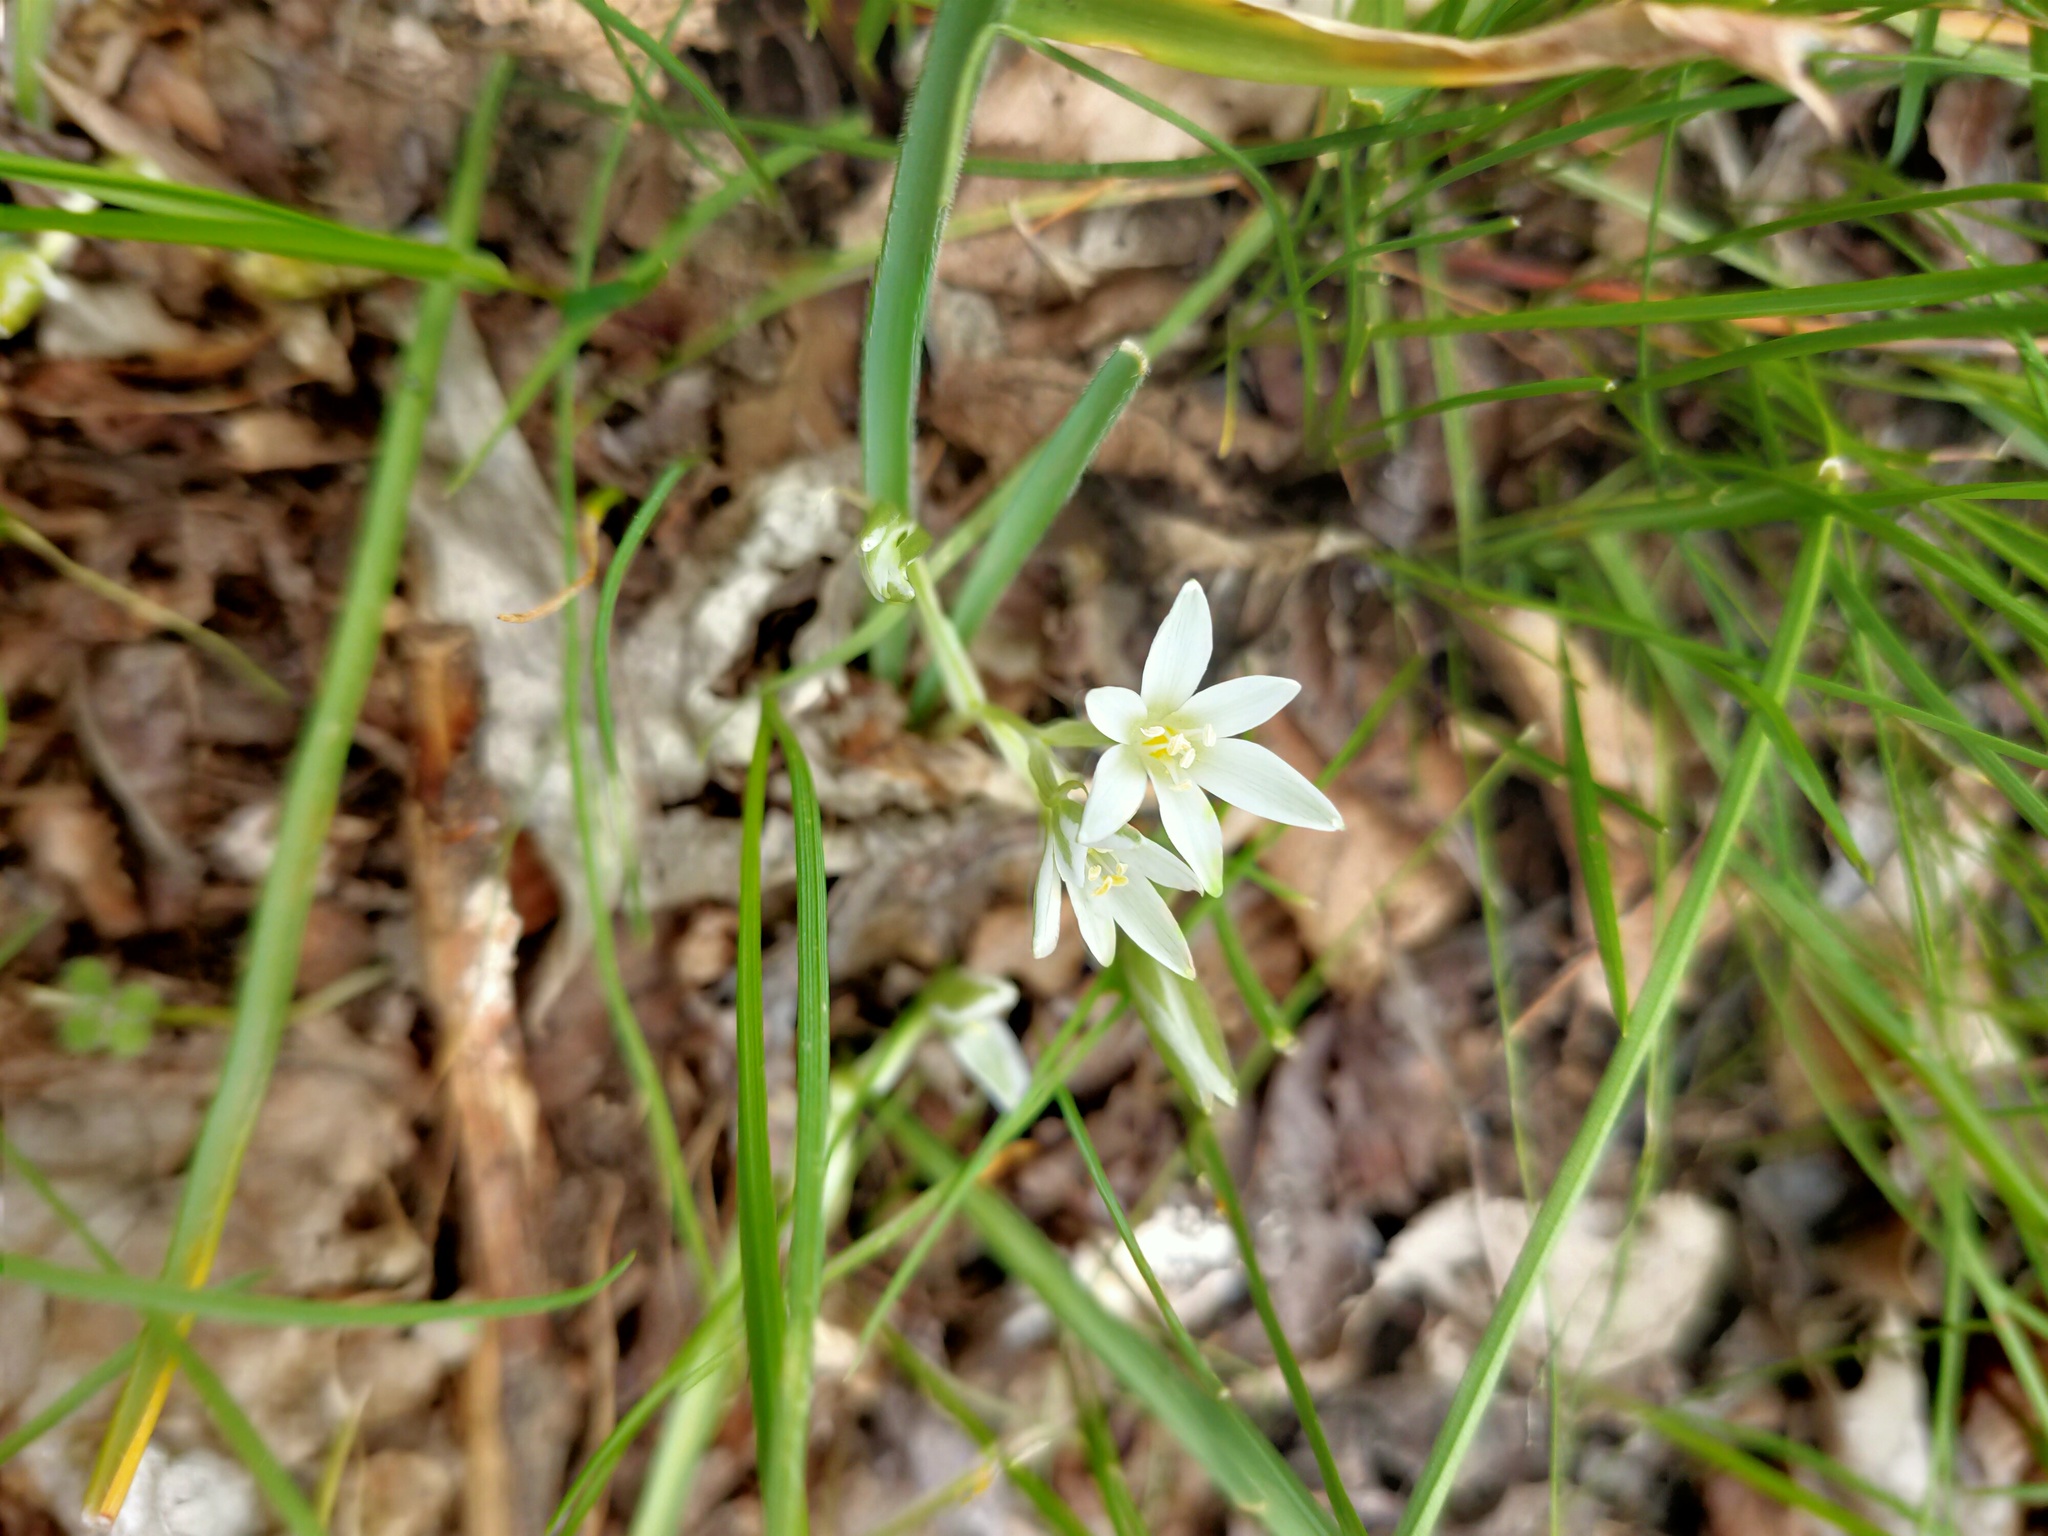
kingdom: Plantae
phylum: Tracheophyta
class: Liliopsida
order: Asparagales
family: Asparagaceae
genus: Ornithogalum
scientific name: Ornithogalum fimbriatum
